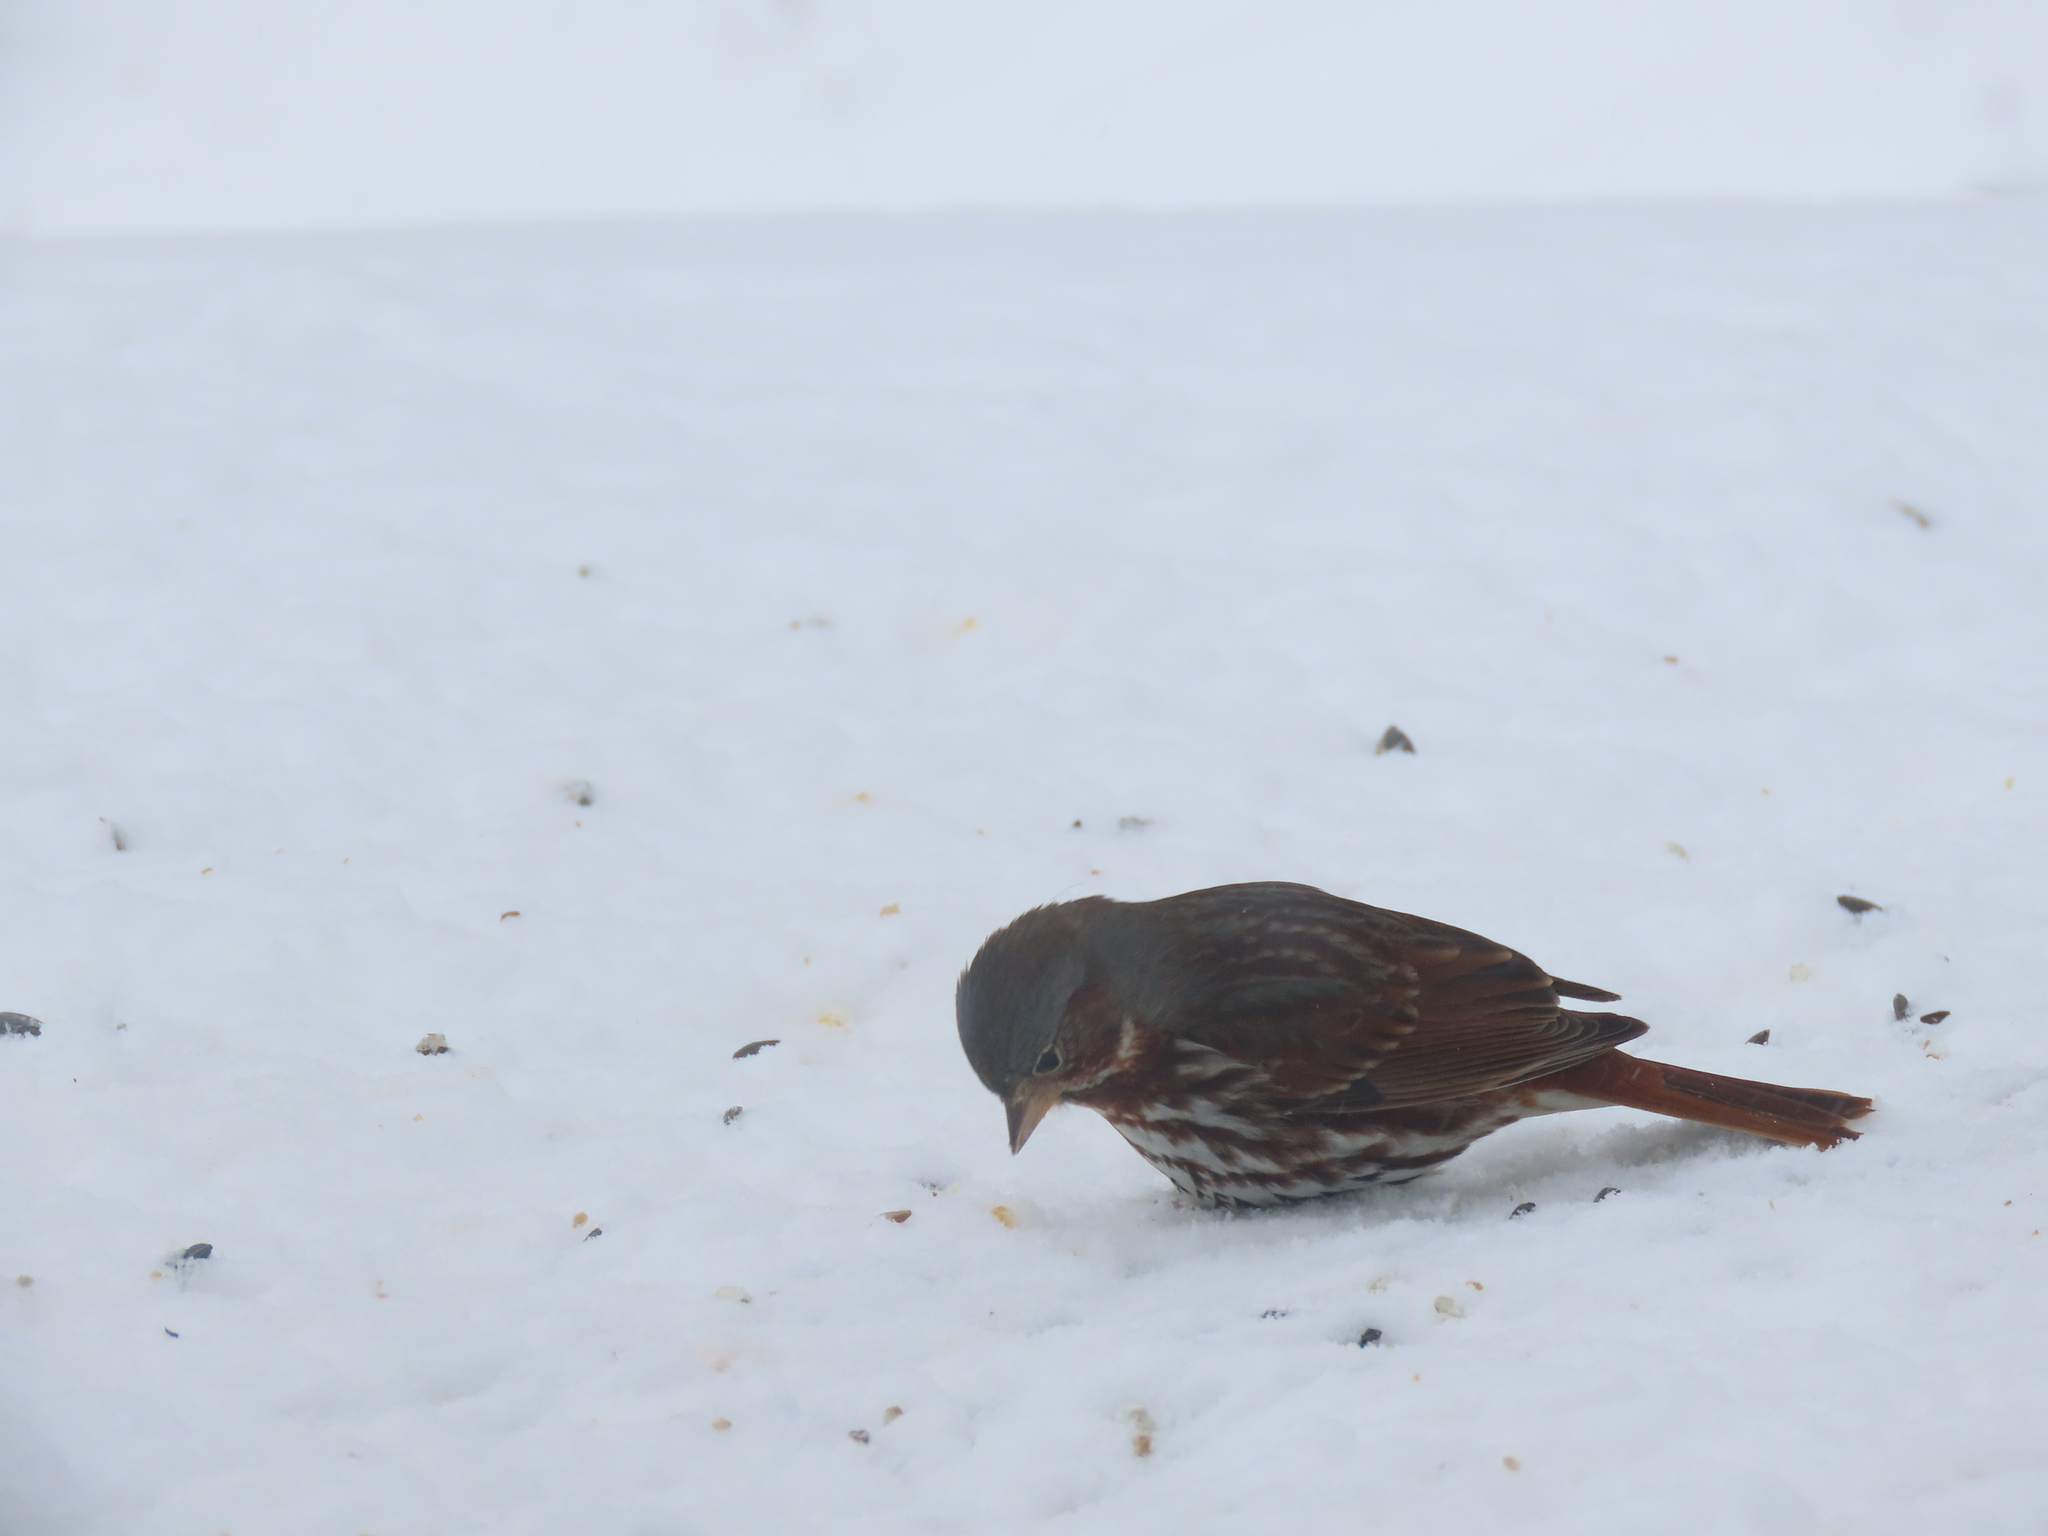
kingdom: Animalia
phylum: Chordata
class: Aves
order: Passeriformes
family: Passerellidae
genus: Passerella
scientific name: Passerella iliaca
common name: Fox sparrow
